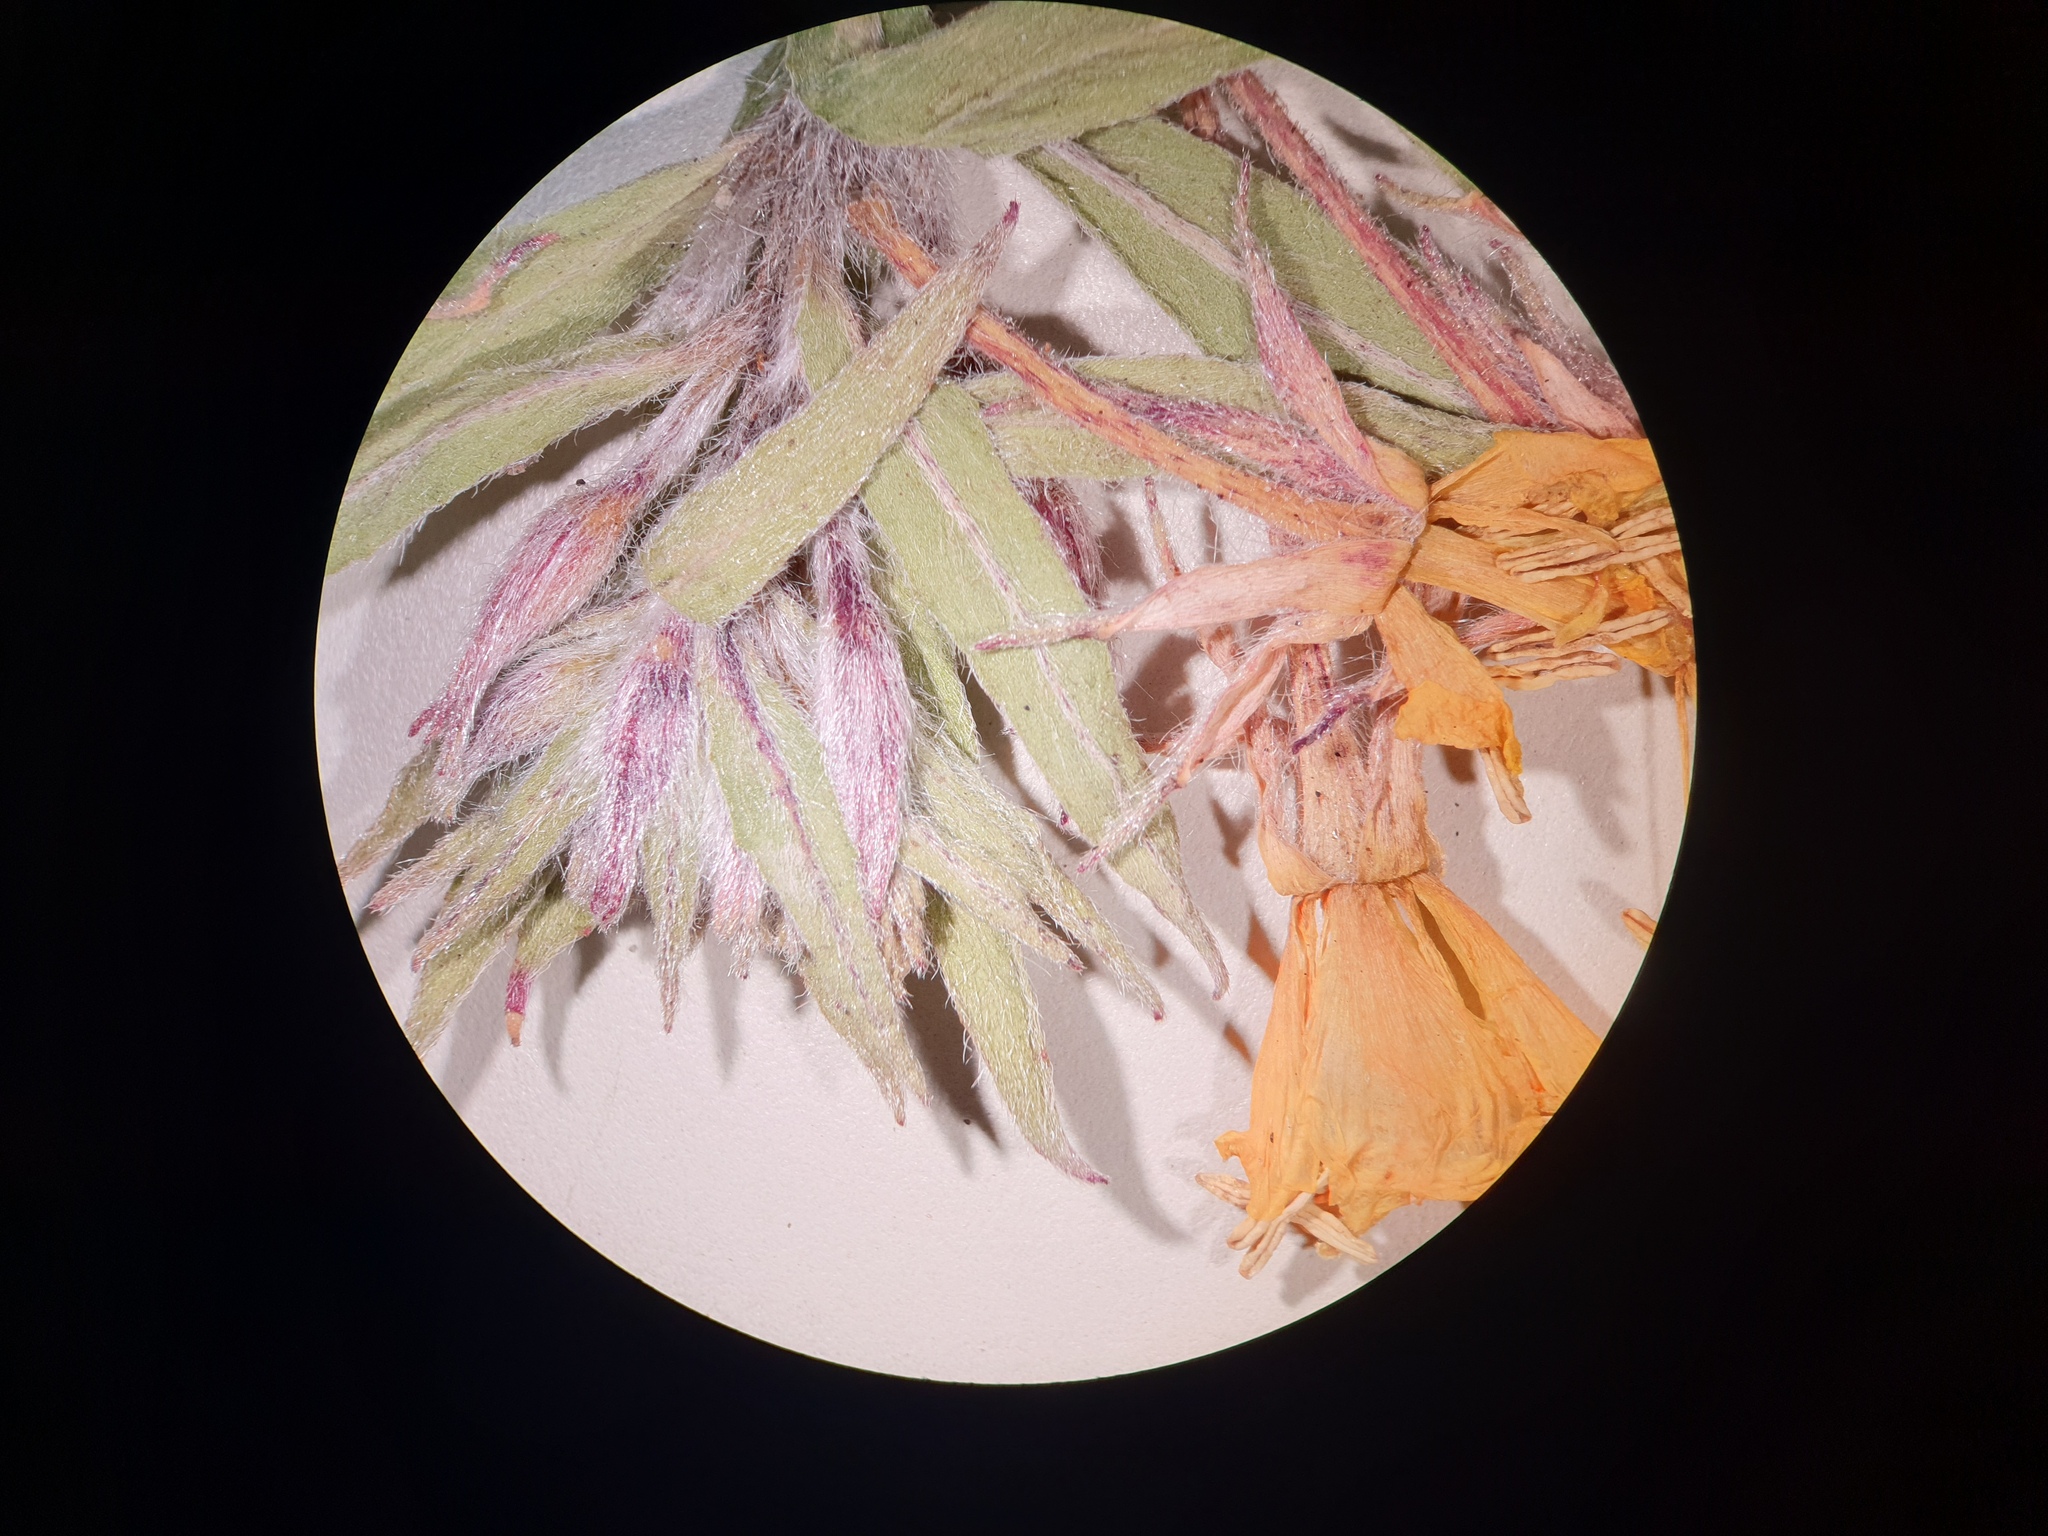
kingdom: Plantae
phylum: Tracheophyta
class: Magnoliopsida
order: Myrtales
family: Onagraceae
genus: Oenothera
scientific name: Oenothera parviflora
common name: Least evening-primrose
